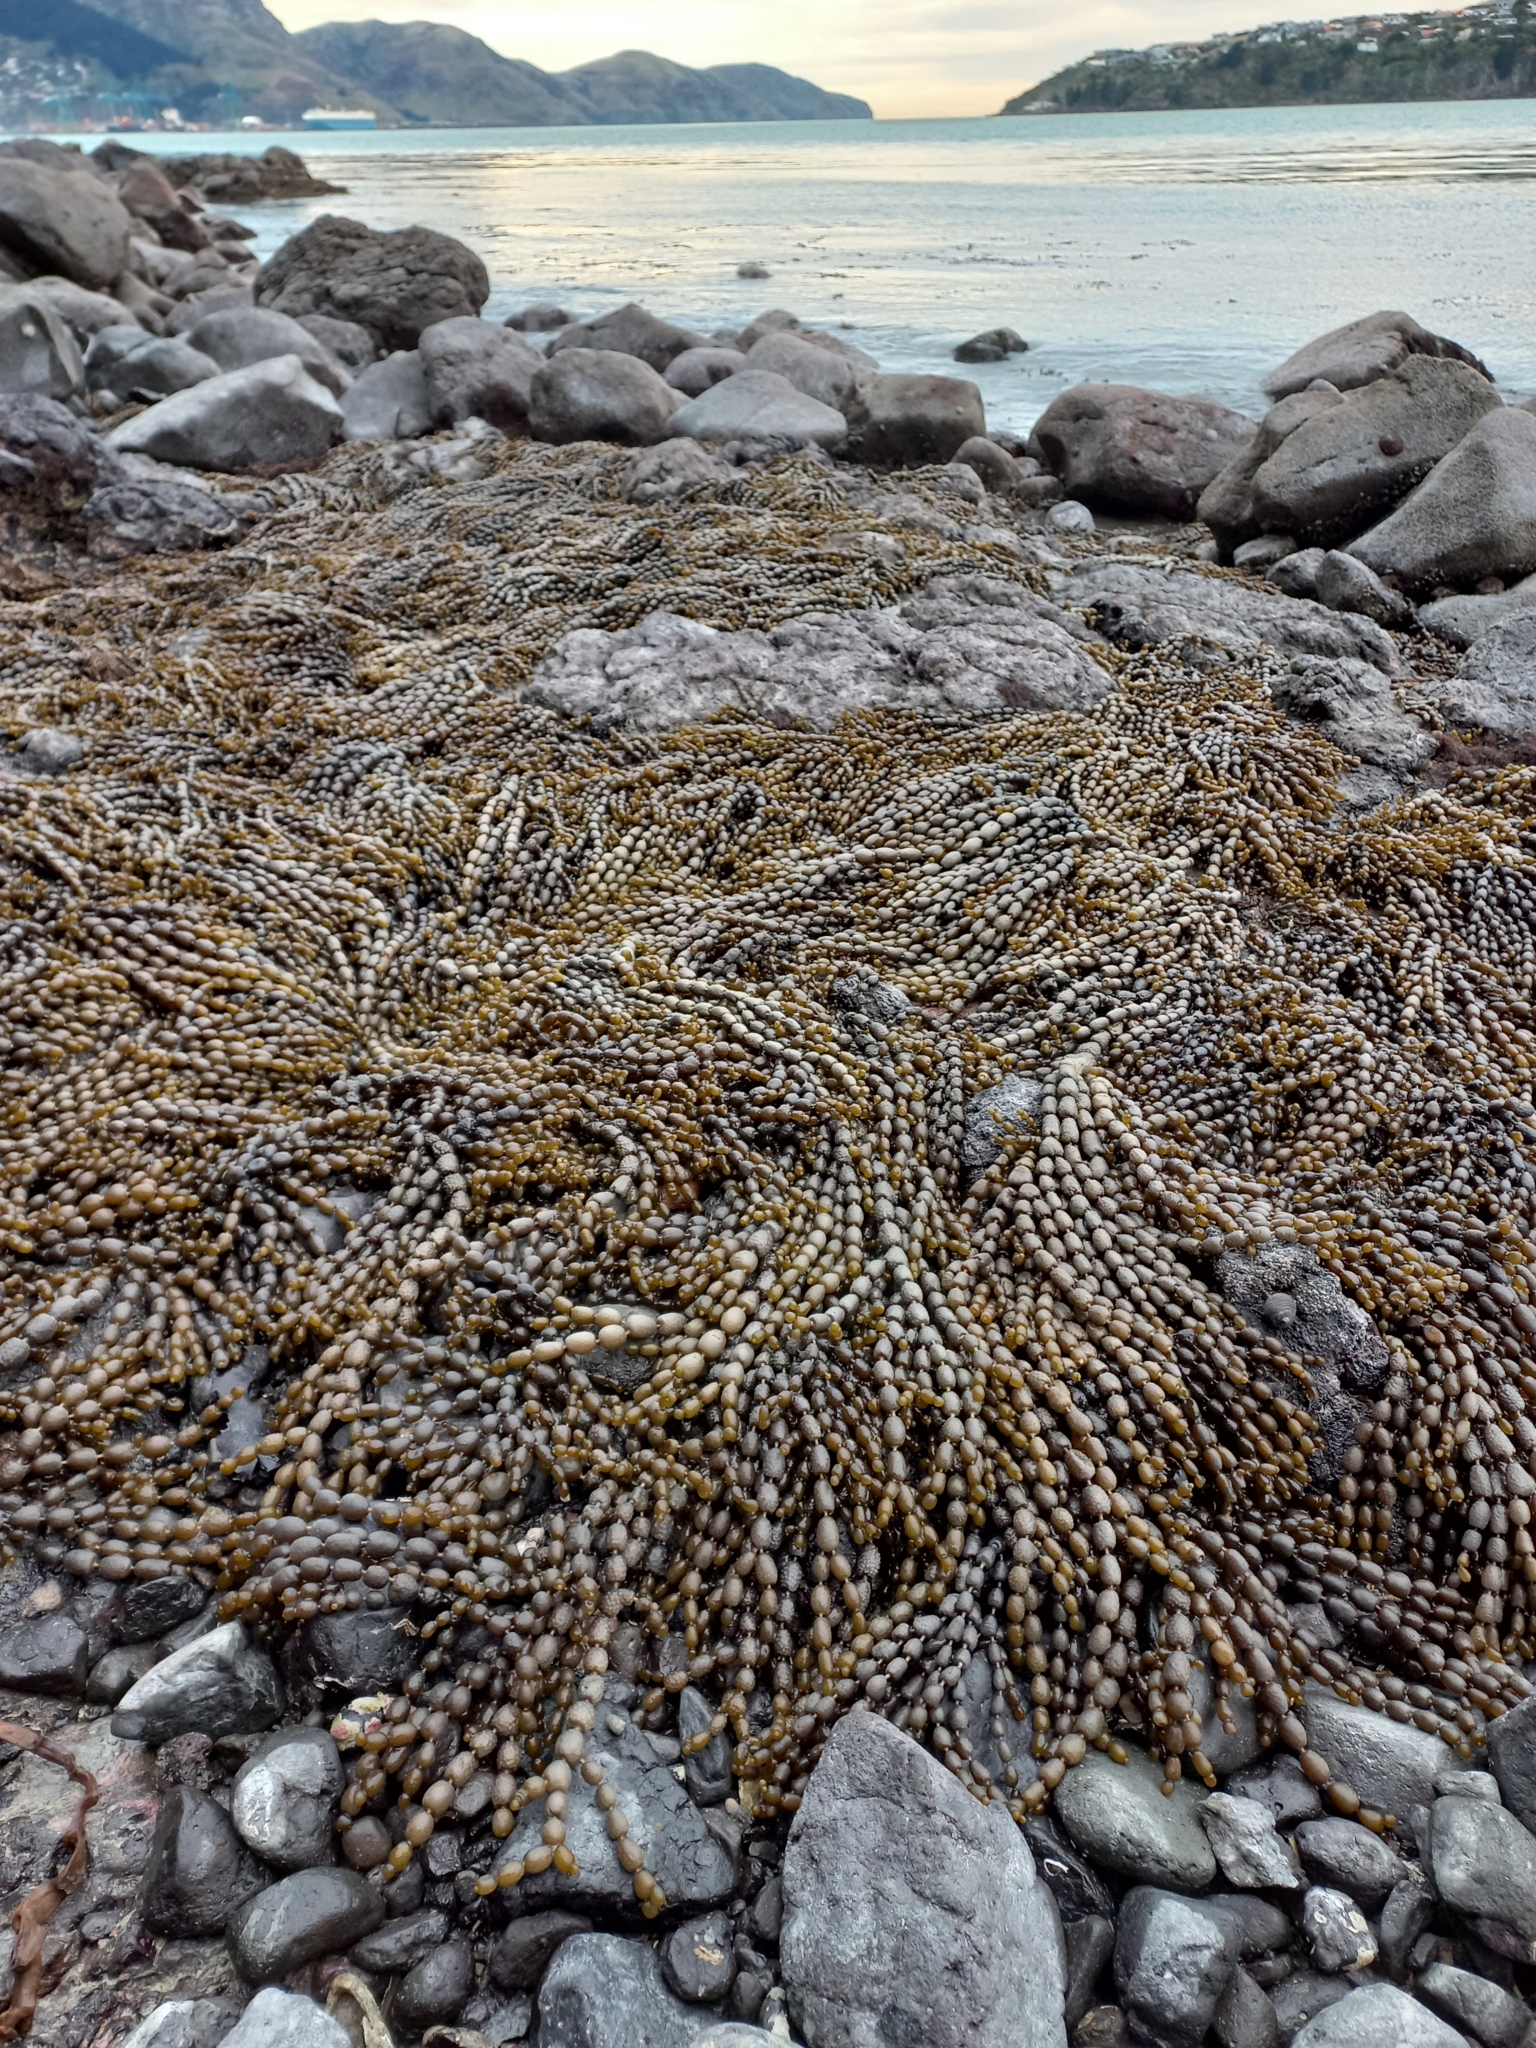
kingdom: Chromista
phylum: Ochrophyta
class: Phaeophyceae
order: Fucales
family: Hormosiraceae
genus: Hormosira
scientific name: Hormosira banksii
